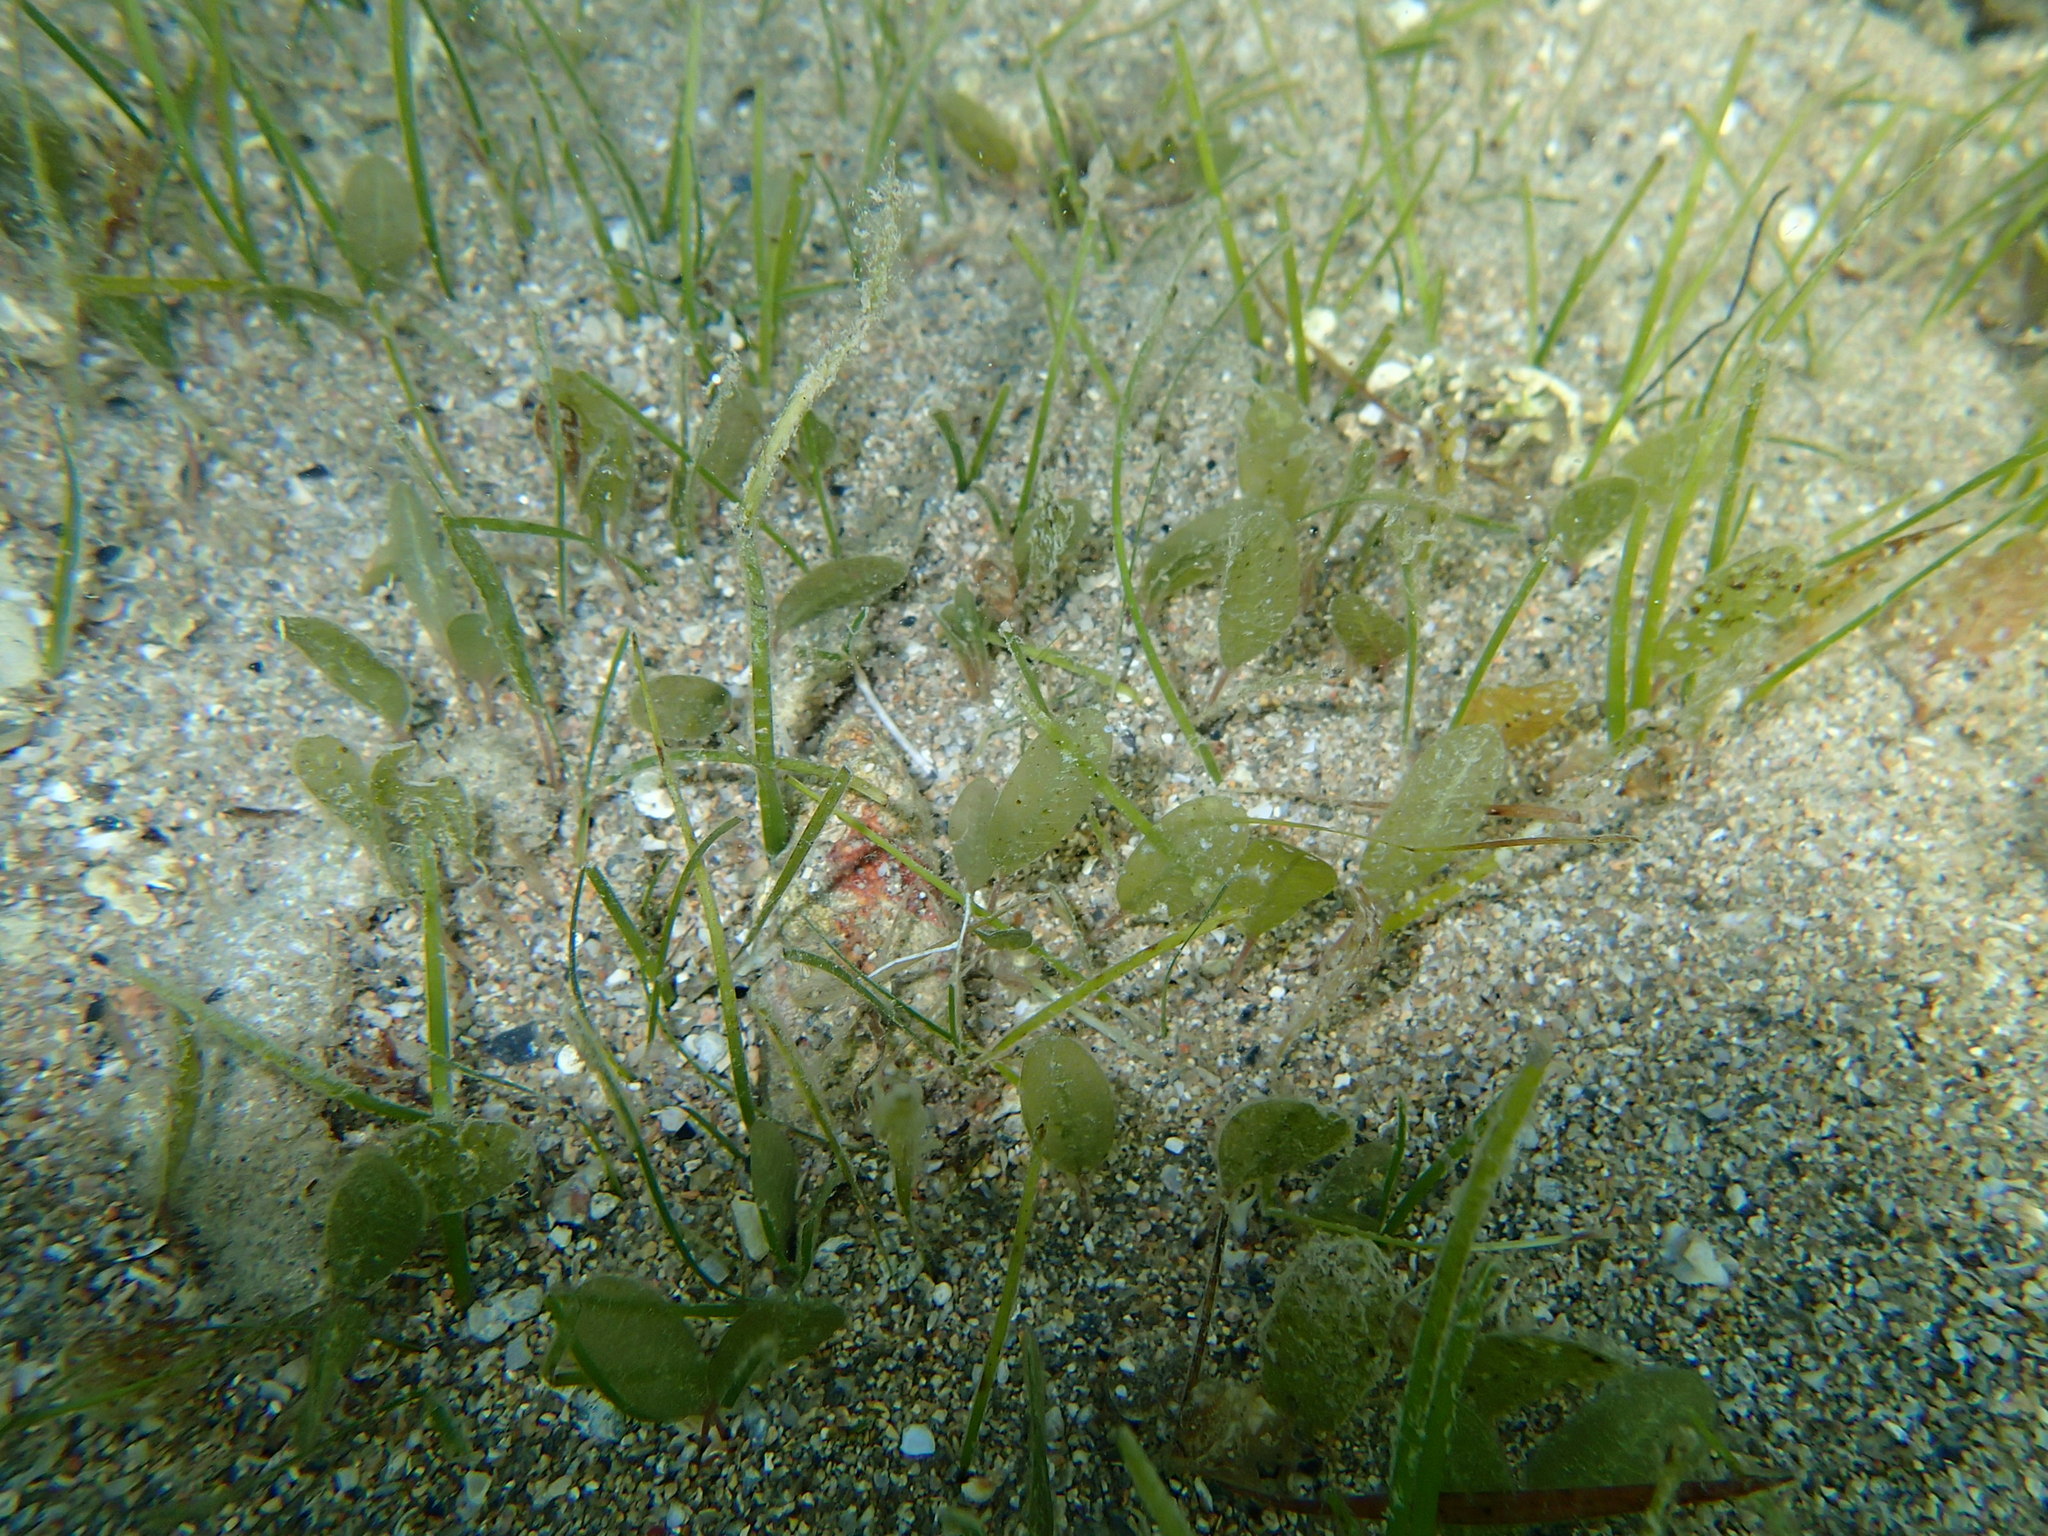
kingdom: Plantae
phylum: Tracheophyta
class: Liliopsida
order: Alismatales
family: Hydrocharitaceae
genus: Halophila
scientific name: Halophila ovalis
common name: Species code: ho
